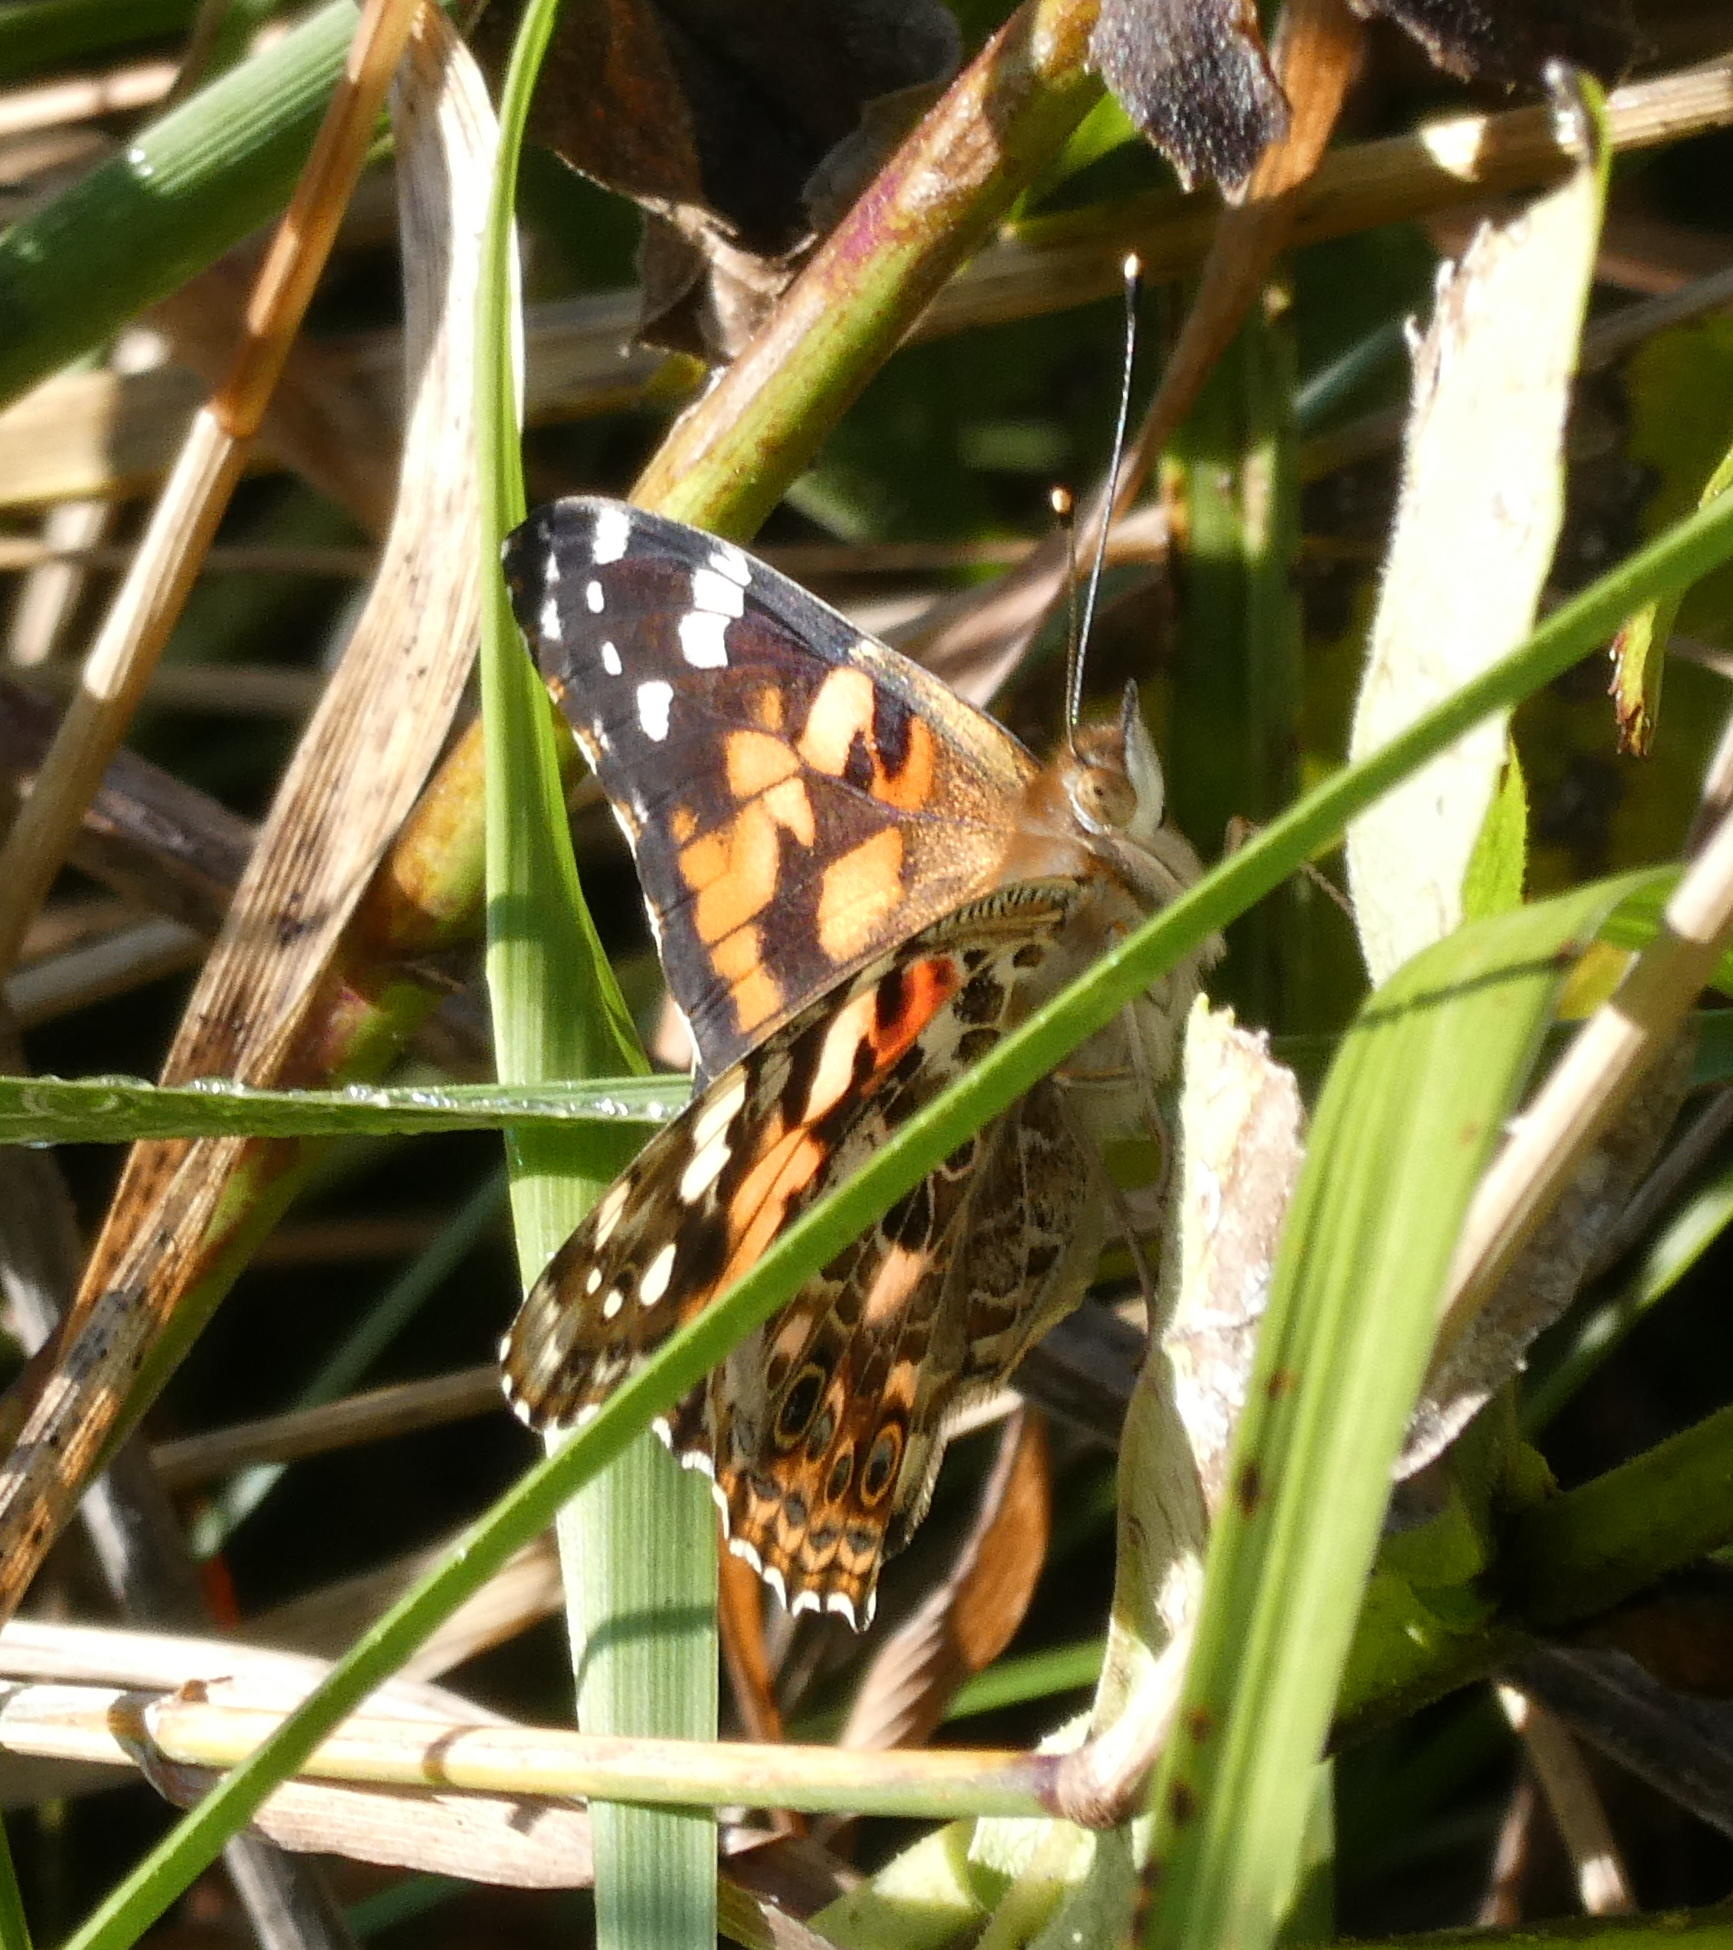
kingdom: Animalia
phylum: Arthropoda
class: Insecta
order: Lepidoptera
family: Nymphalidae
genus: Vanessa
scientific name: Vanessa cardui
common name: Painted lady
